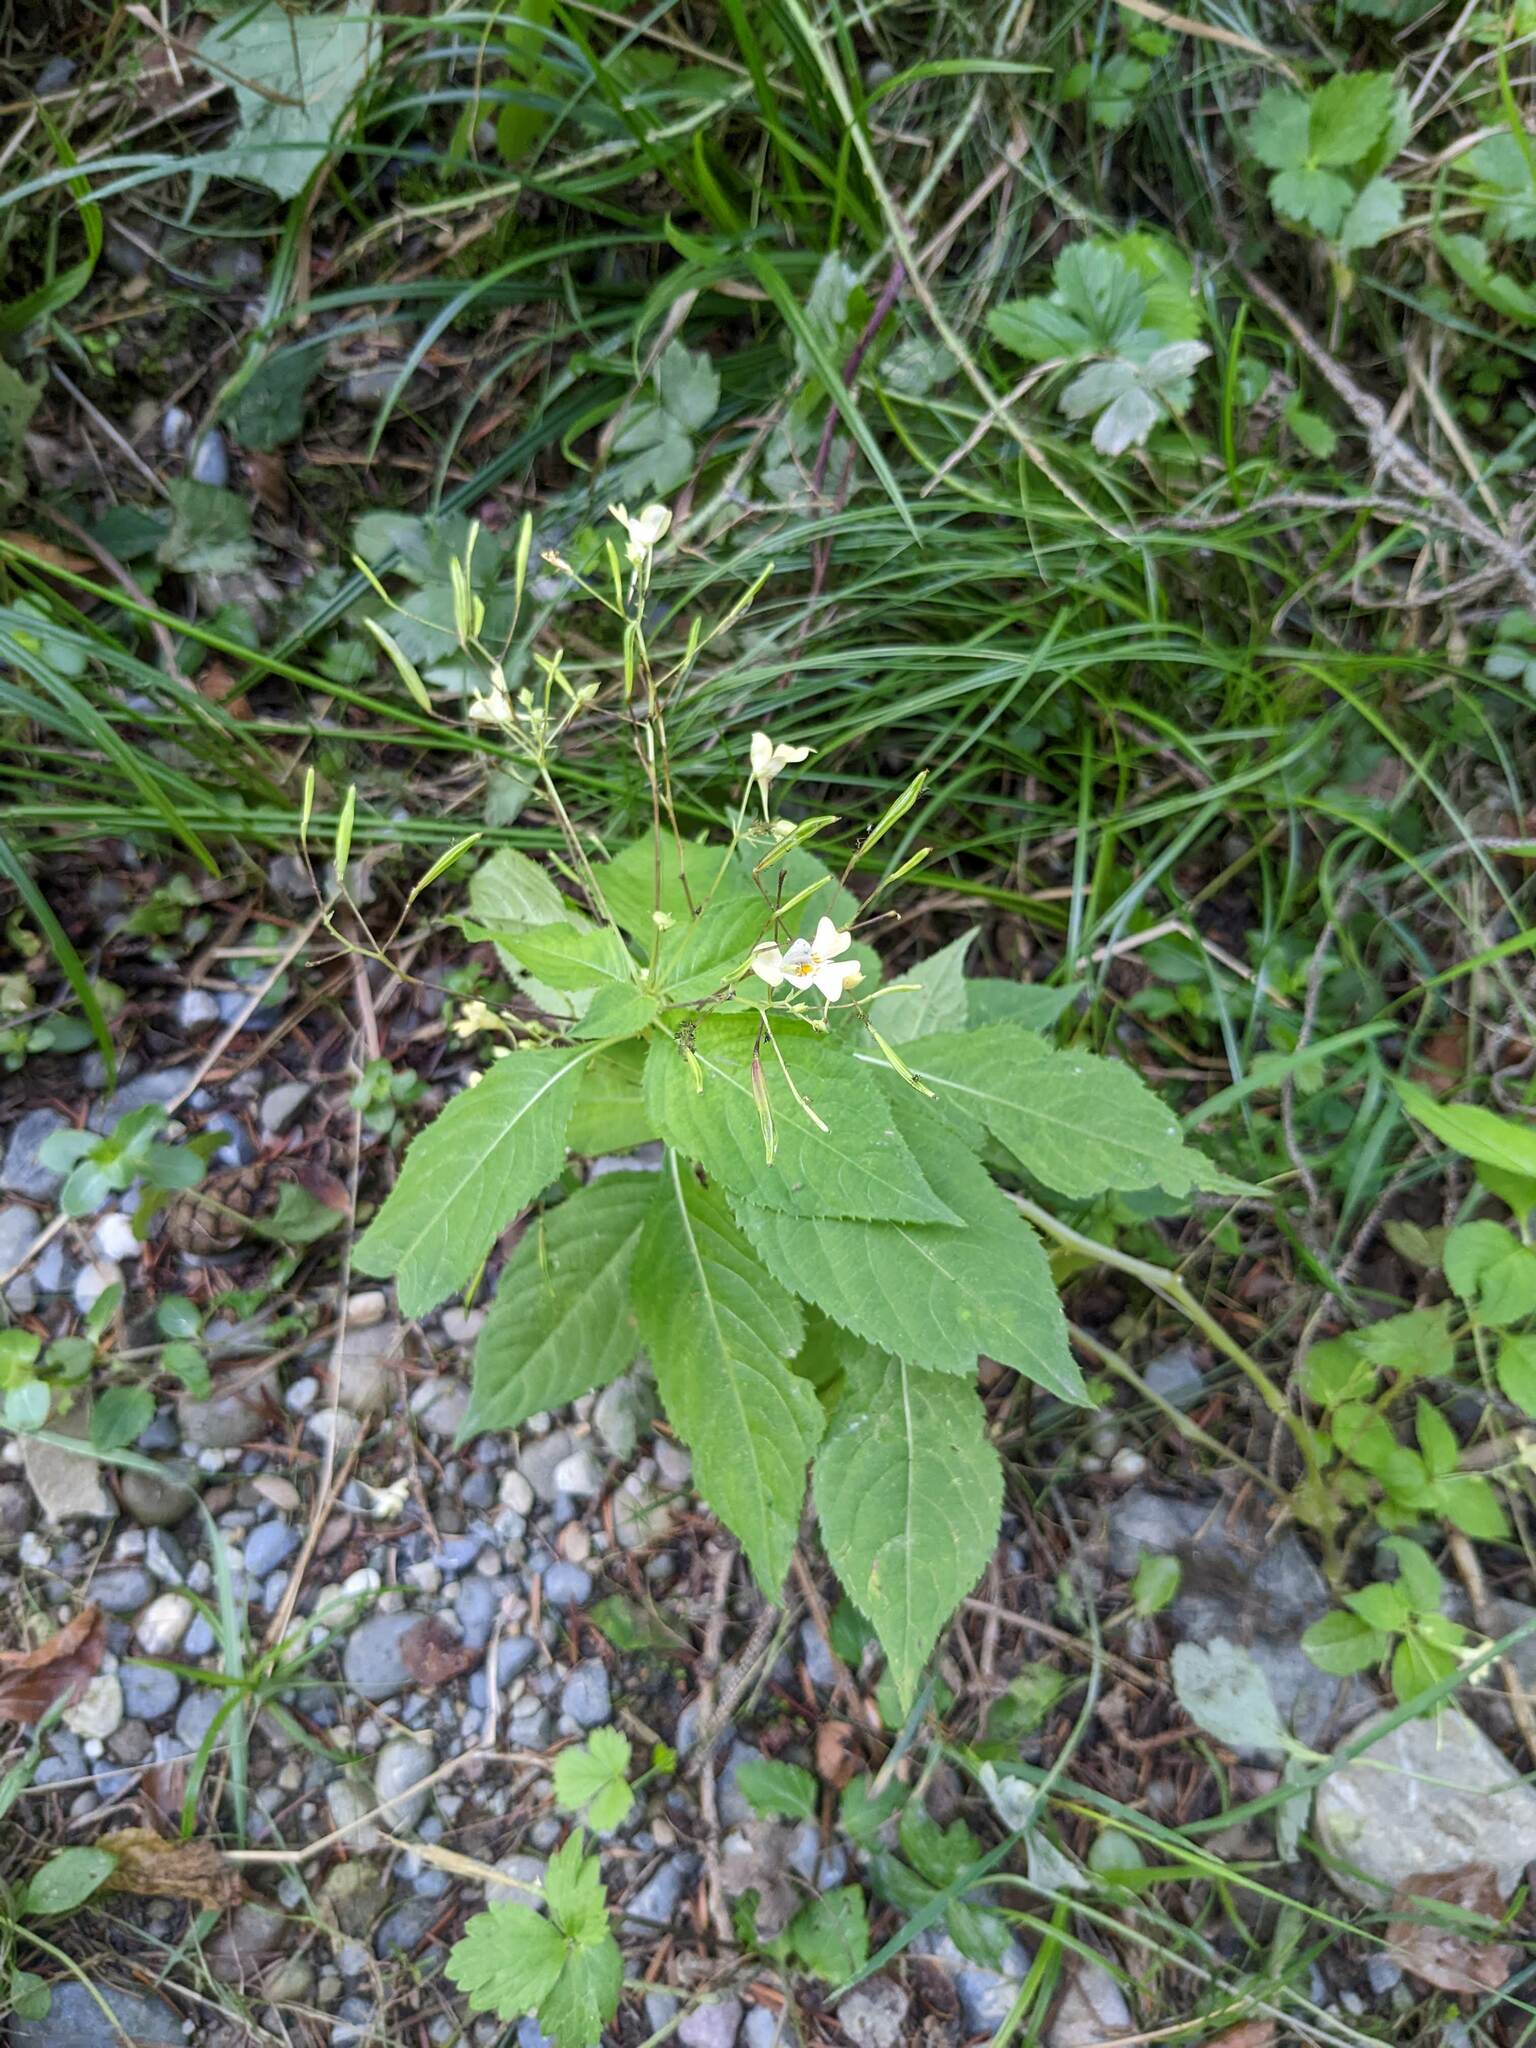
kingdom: Plantae
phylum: Tracheophyta
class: Magnoliopsida
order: Ericales
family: Balsaminaceae
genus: Impatiens
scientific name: Impatiens parviflora
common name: Small balsam
